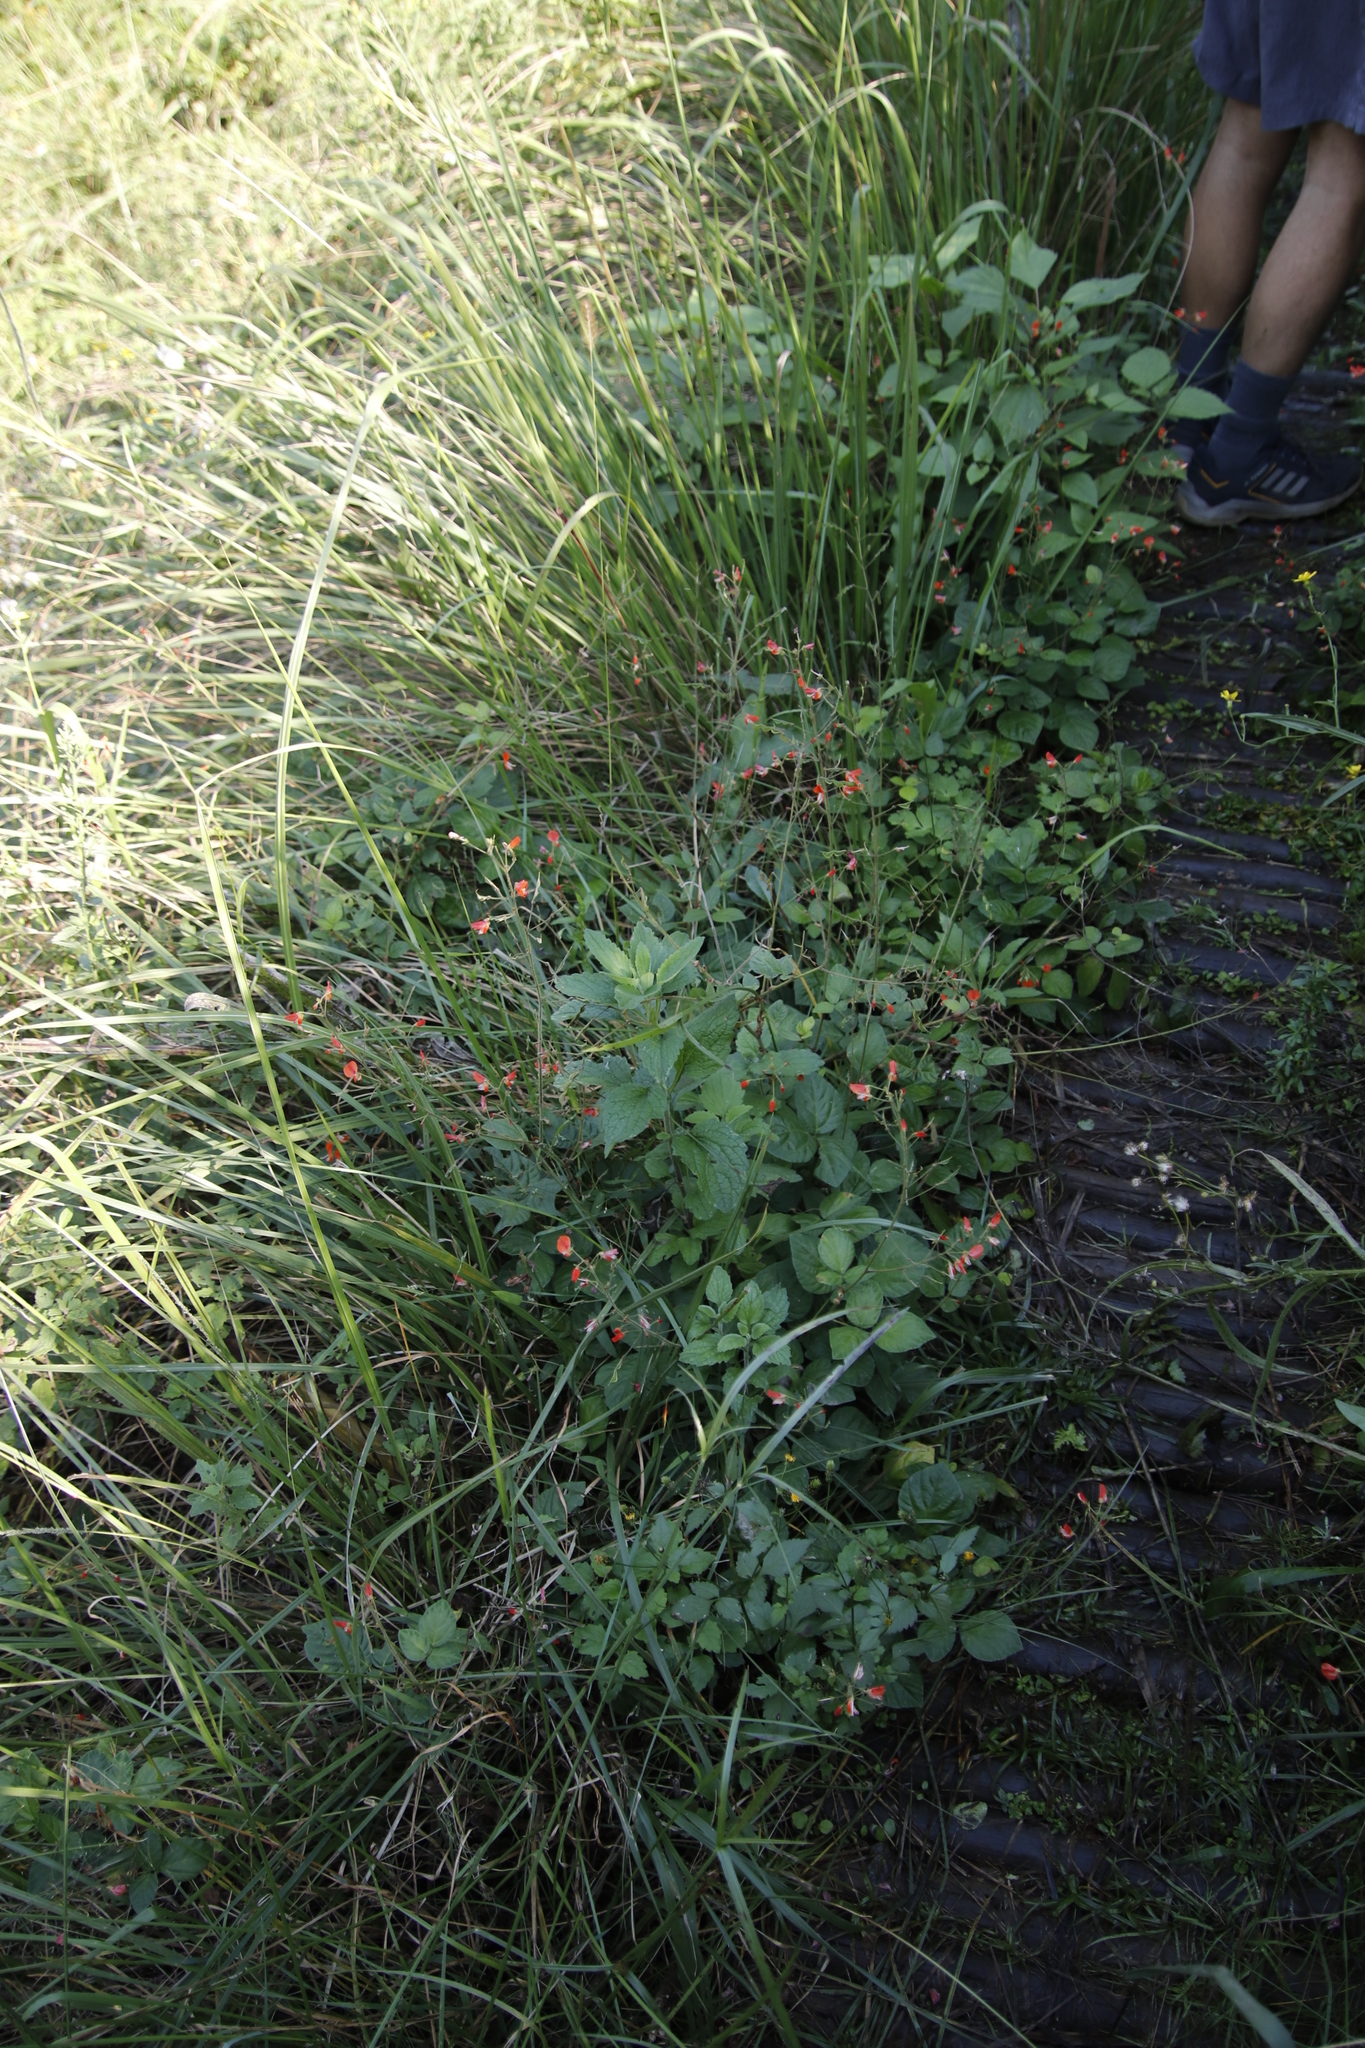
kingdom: Plantae
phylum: Tracheophyta
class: Magnoliopsida
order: Fabales
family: Fabaceae
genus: Hylodesmum
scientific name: Hylodesmum repandum
